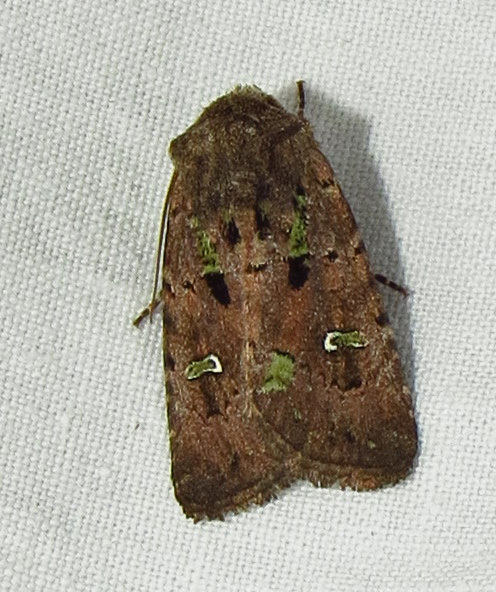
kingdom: Animalia
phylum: Arthropoda
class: Insecta
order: Lepidoptera
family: Noctuidae
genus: Lacinipolia
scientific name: Lacinipolia renigera
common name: Kidney-spotted minor
